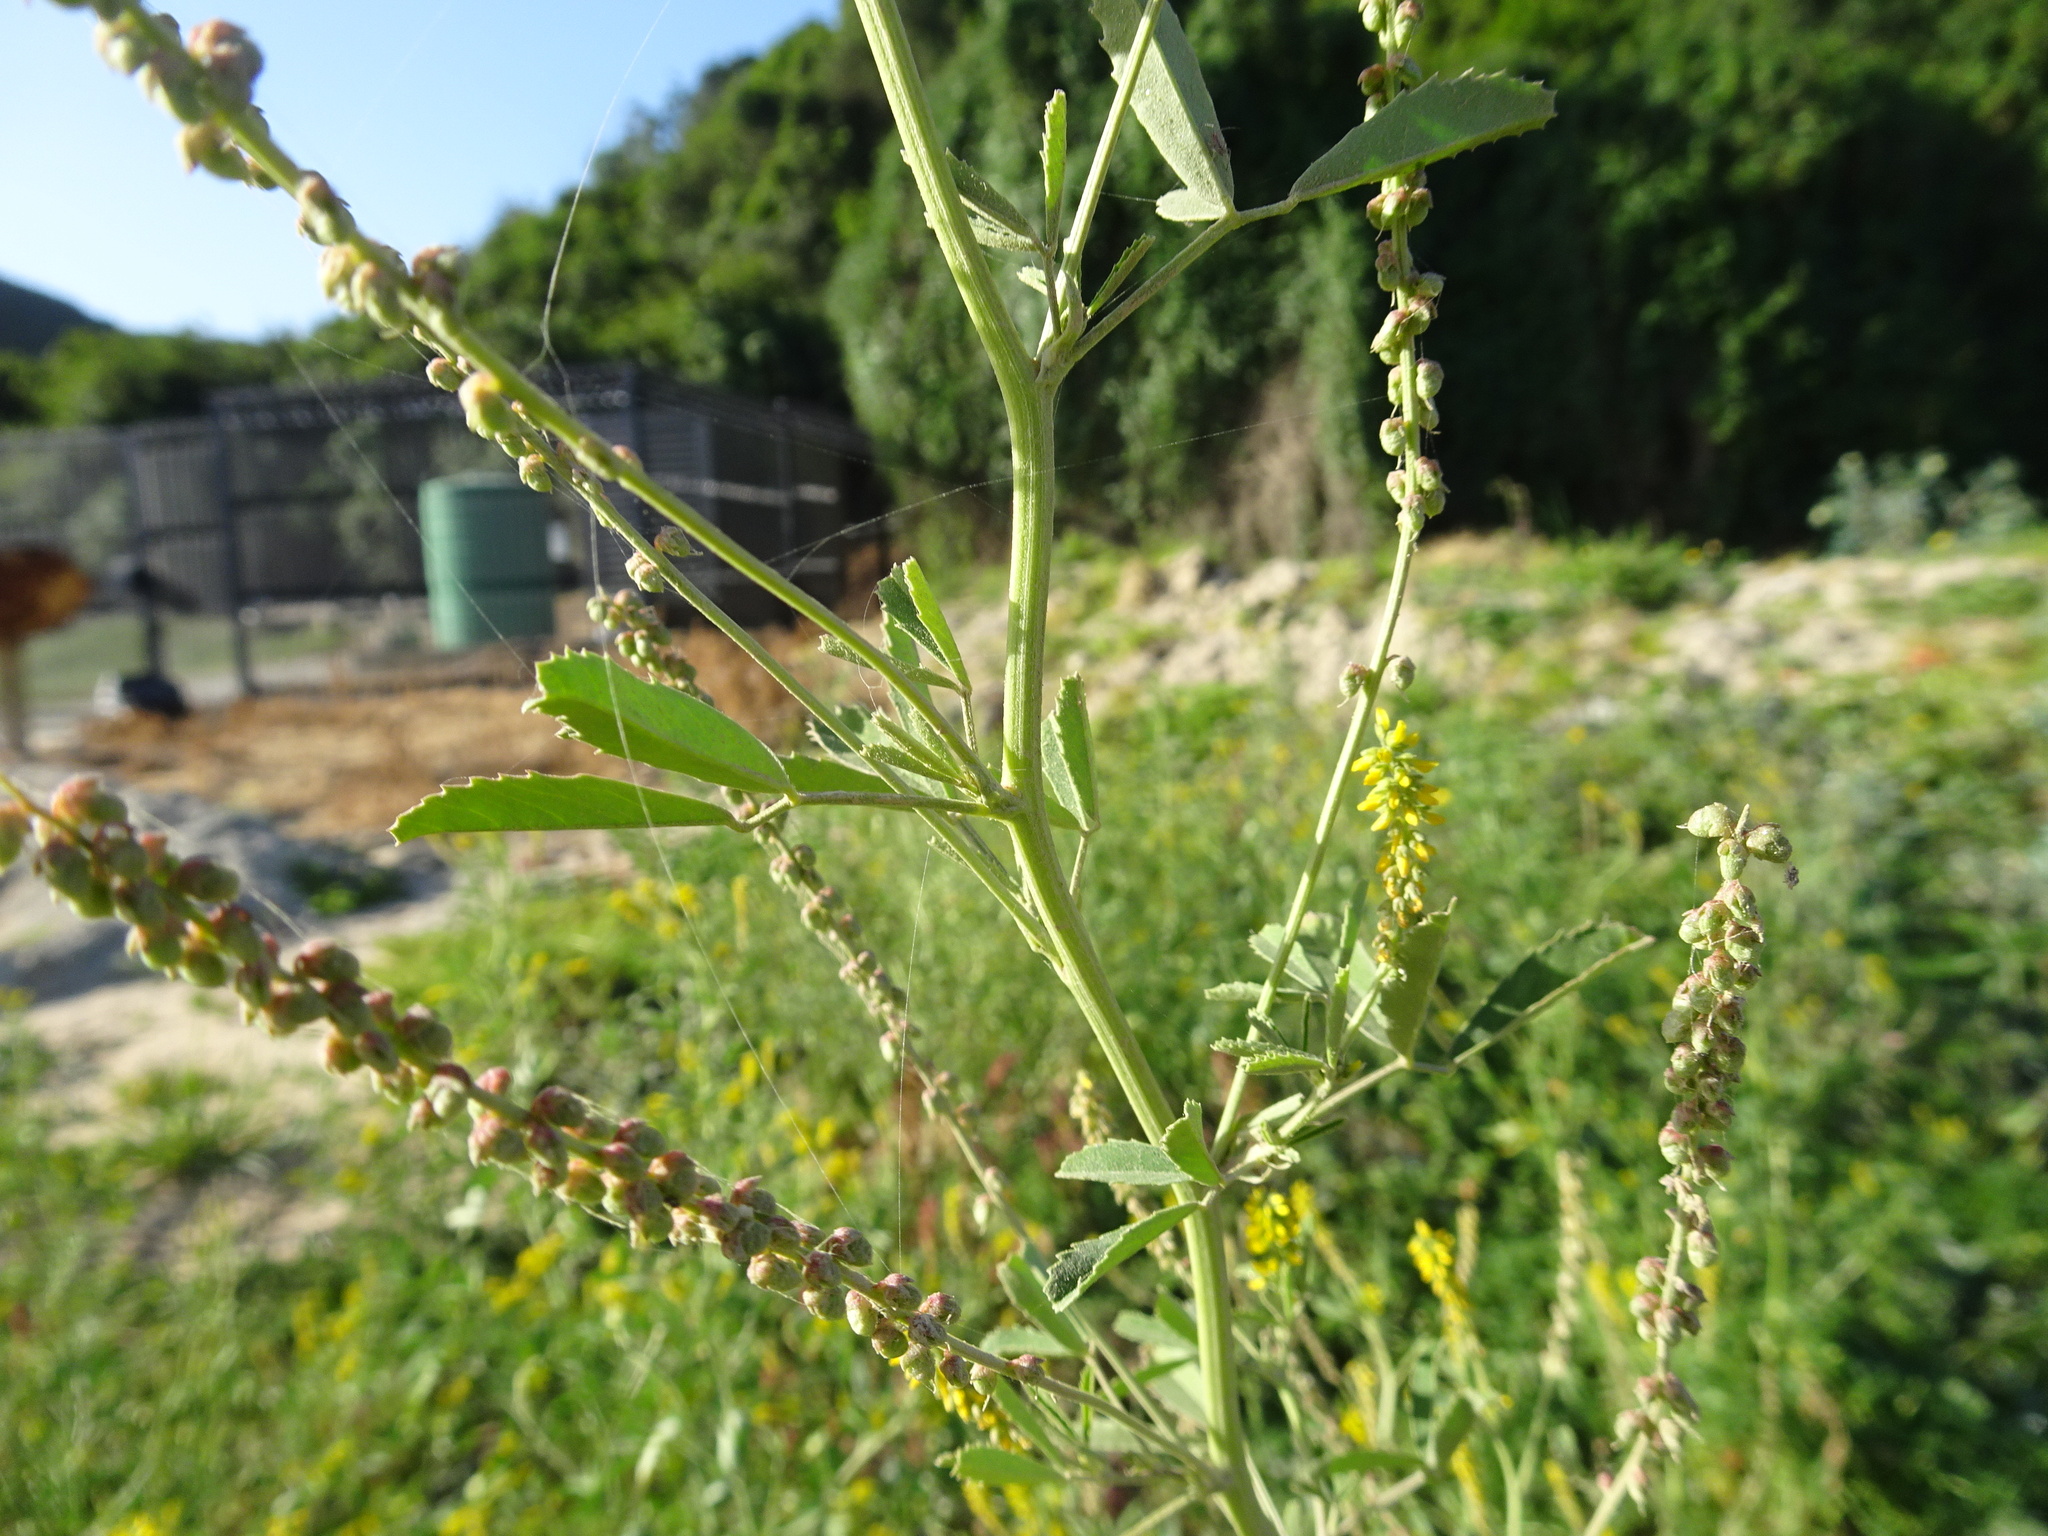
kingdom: Plantae
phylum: Tracheophyta
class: Magnoliopsida
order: Fabales
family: Fabaceae
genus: Melilotus
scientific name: Melilotus indicus
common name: Small melilot
